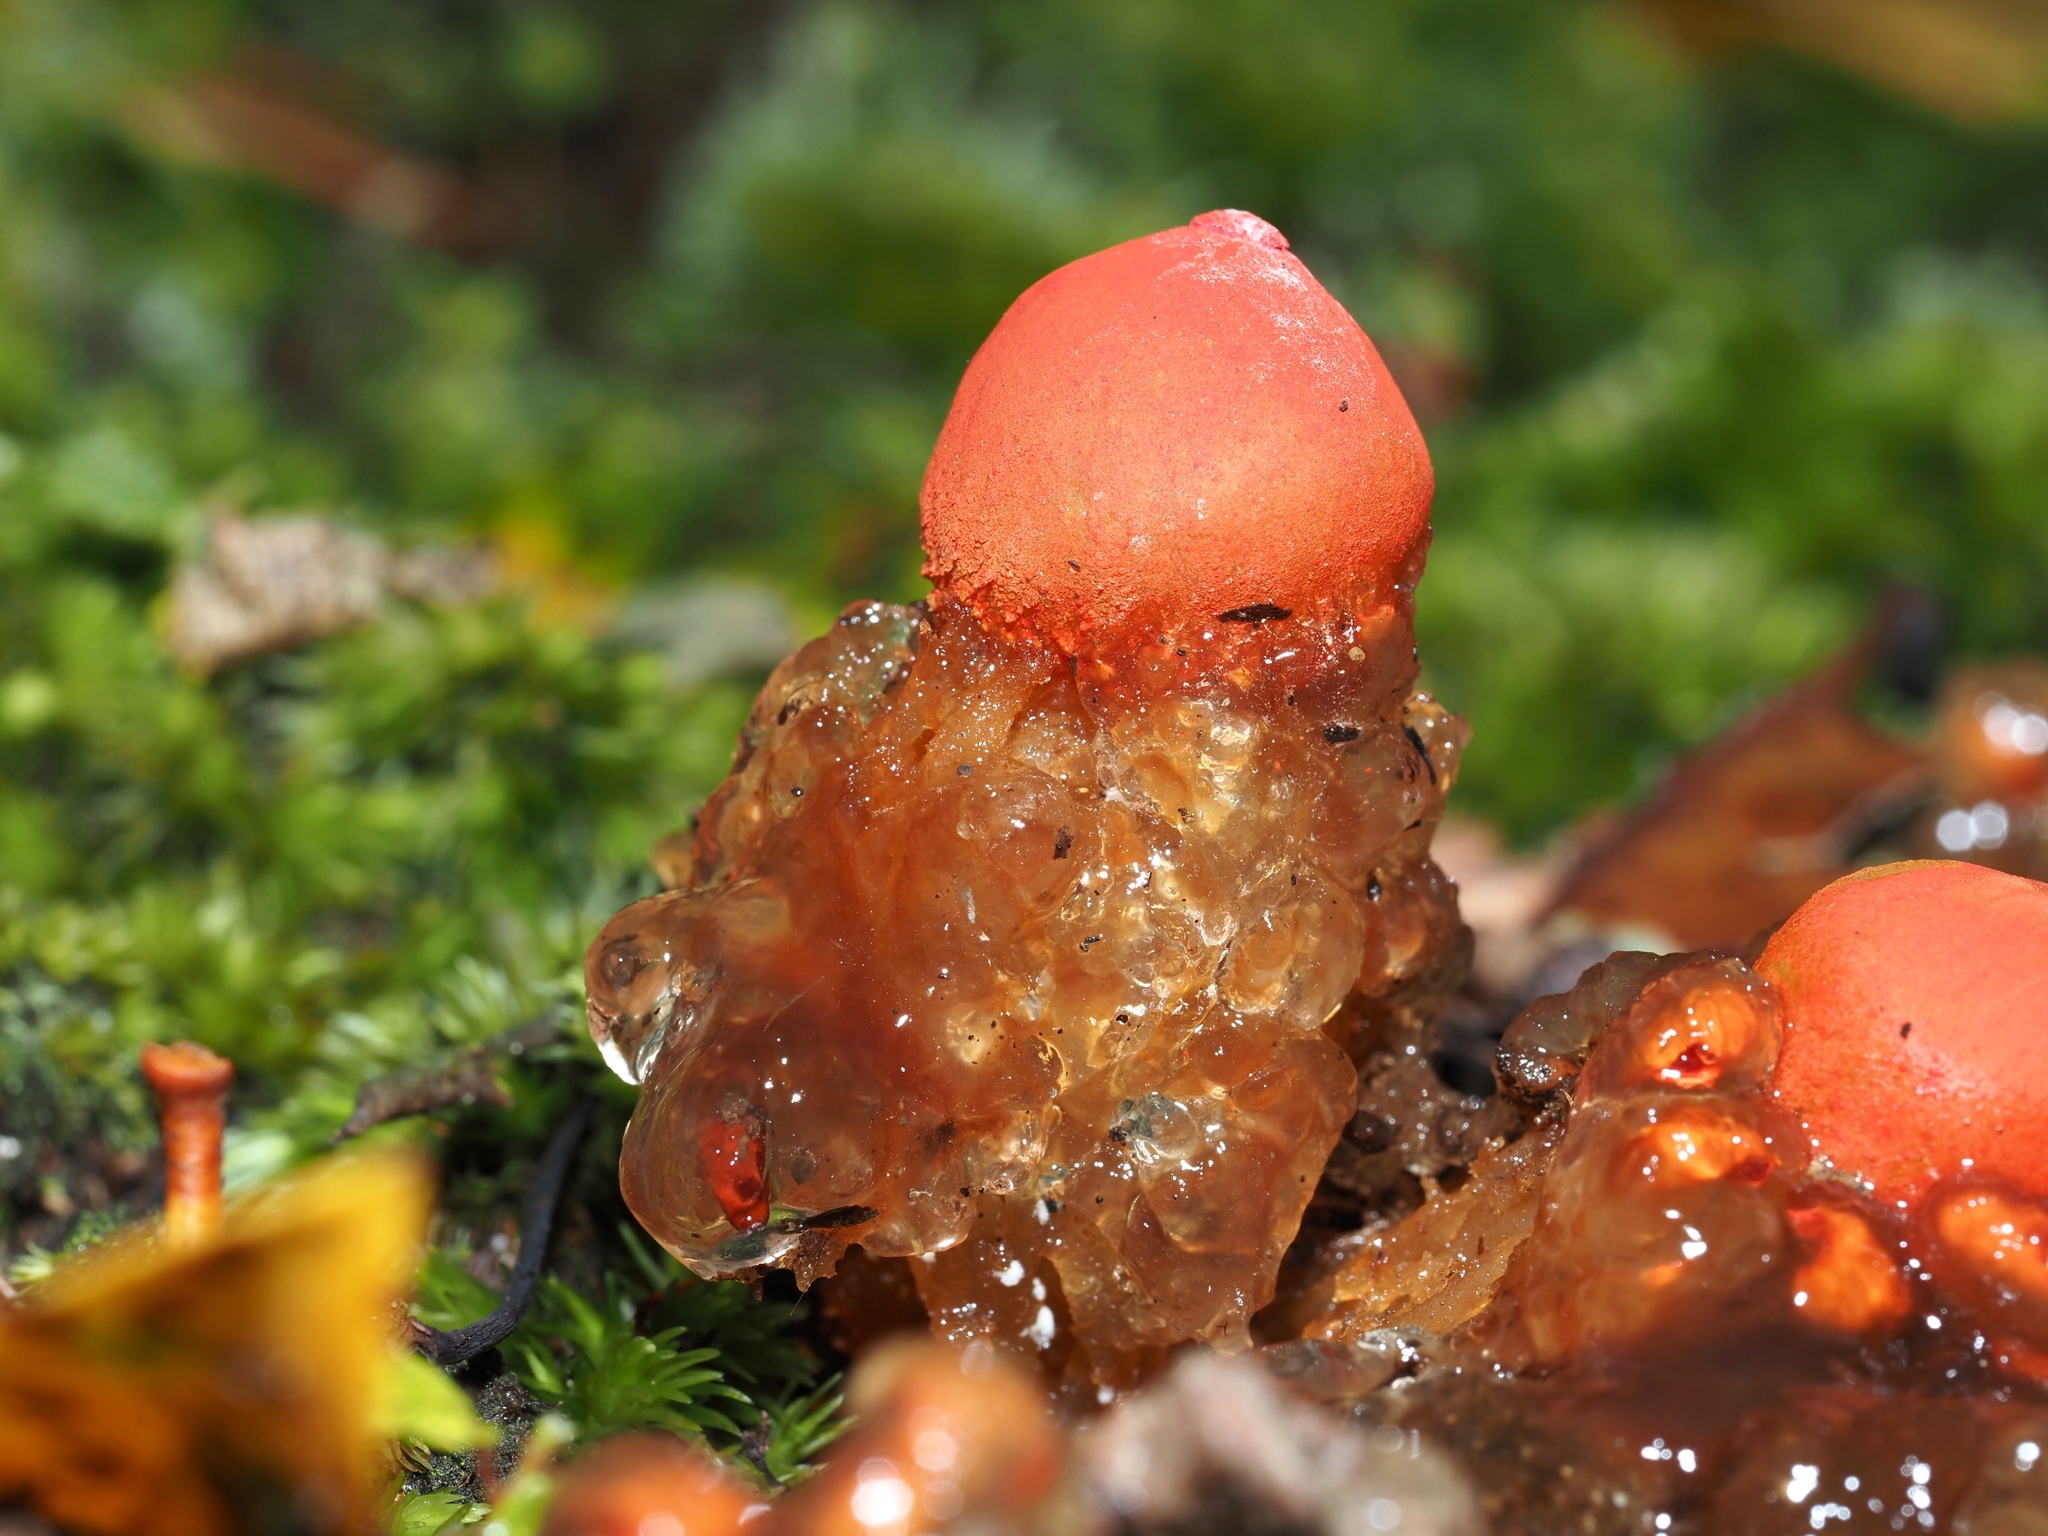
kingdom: Fungi
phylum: Basidiomycota
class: Agaricomycetes
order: Boletales
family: Calostomataceae
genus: Calostoma
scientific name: Calostoma cinnabarinum
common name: Stalked puffball-in-aspic
